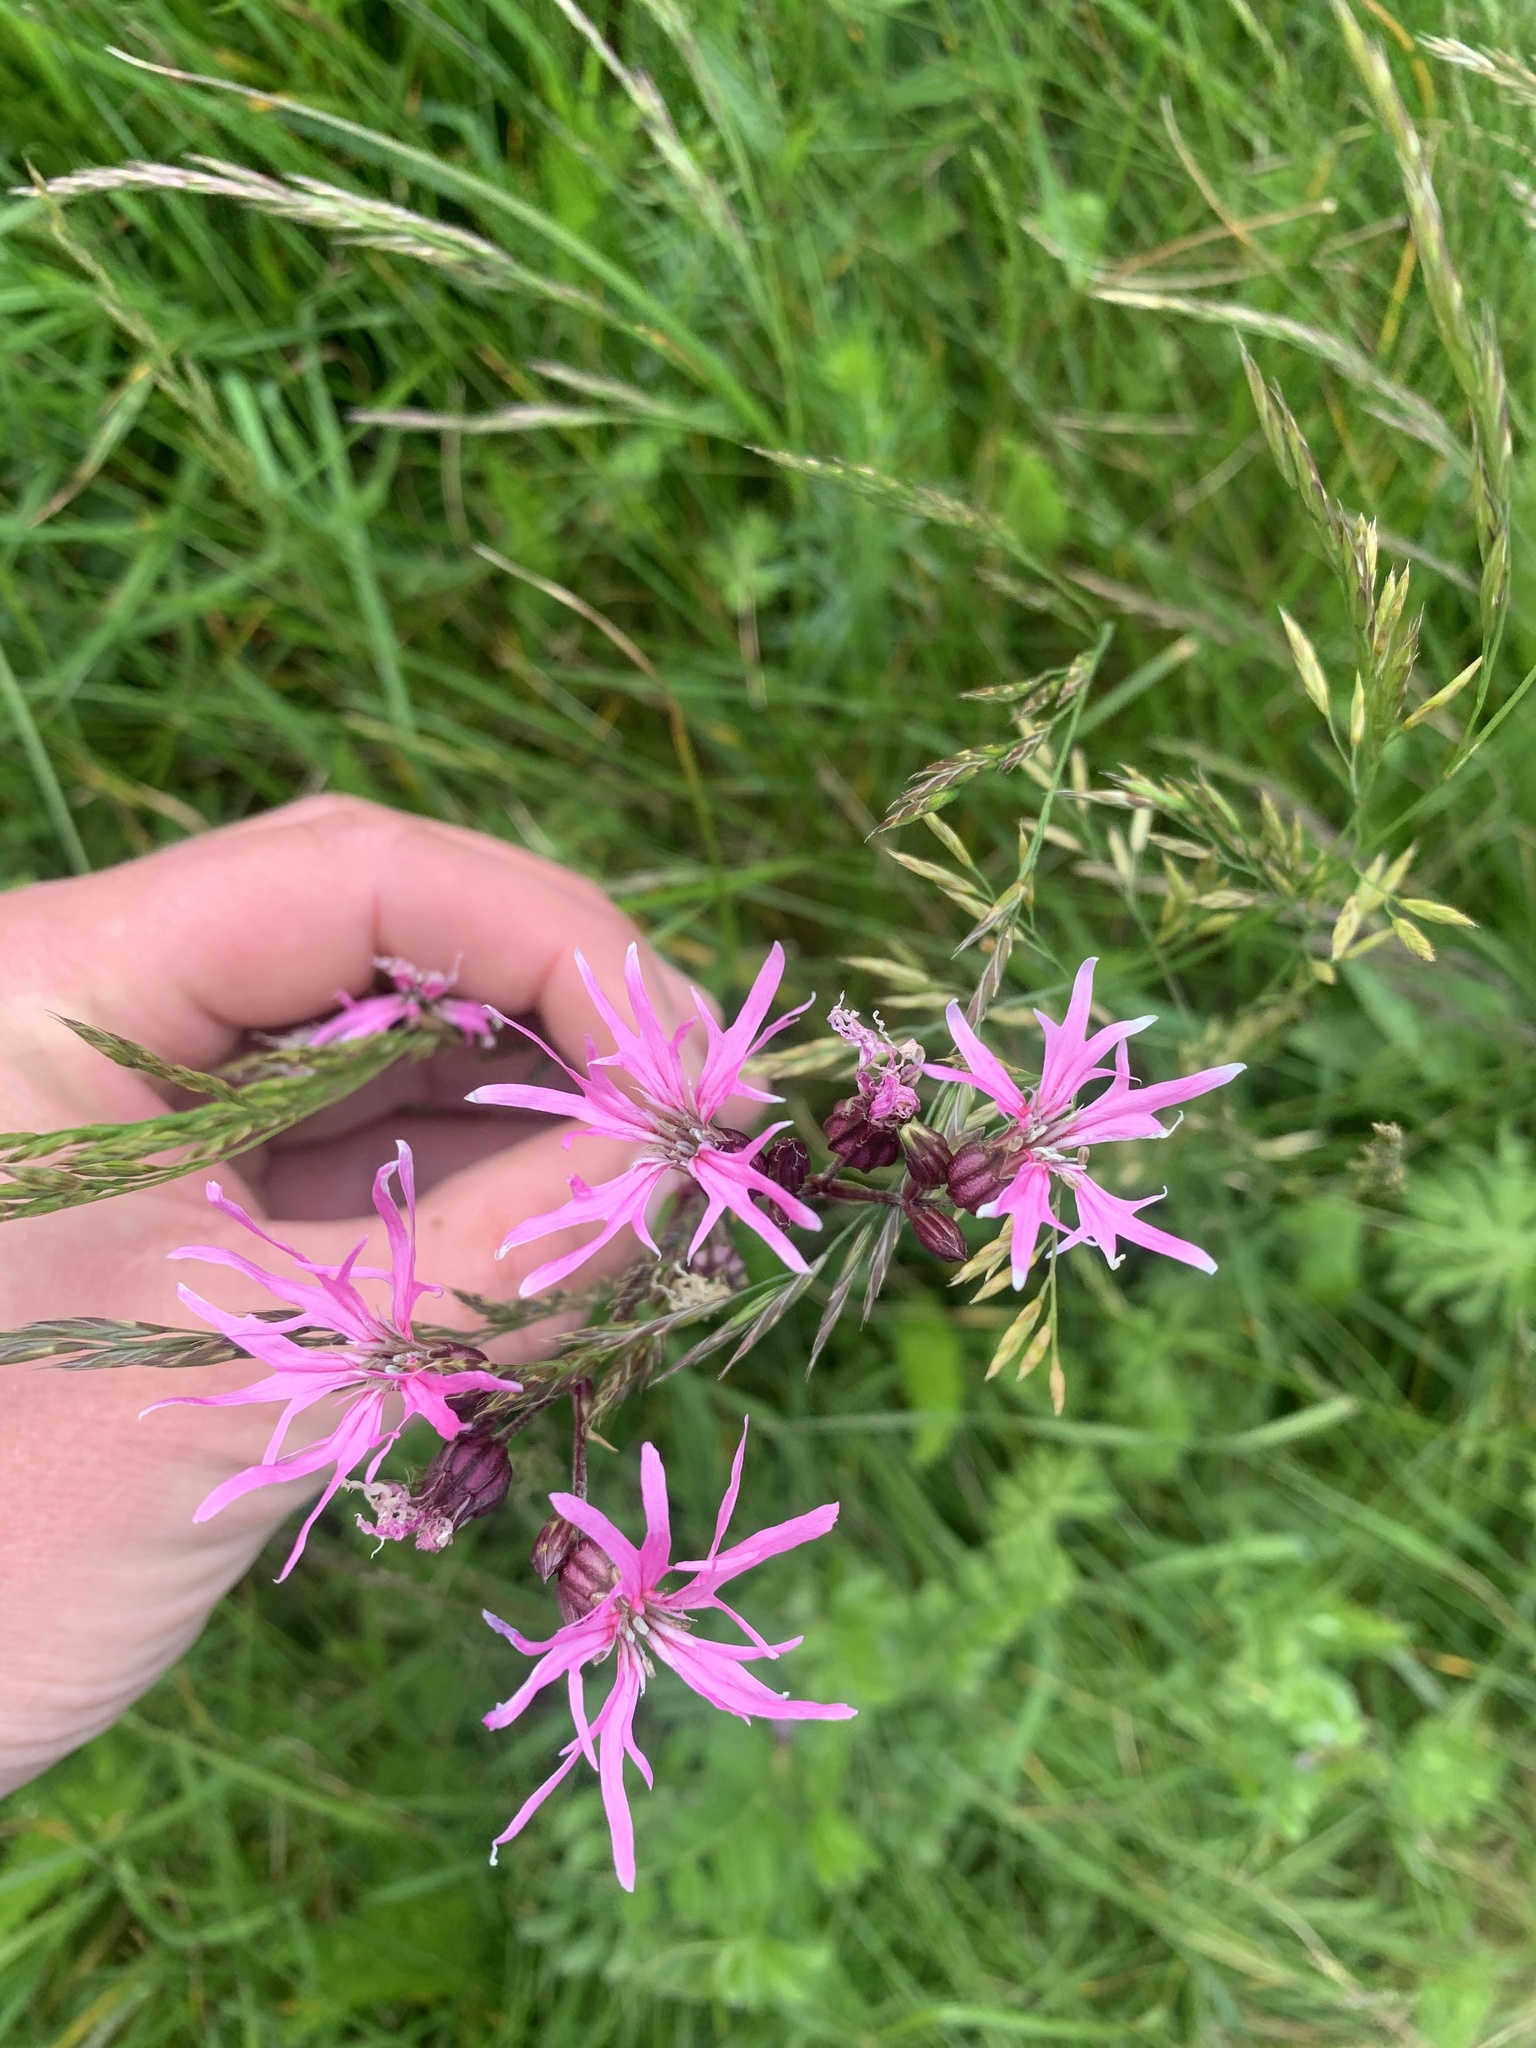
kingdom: Plantae
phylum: Tracheophyta
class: Magnoliopsida
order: Caryophyllales
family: Caryophyllaceae
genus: Silene
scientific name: Silene flos-cuculi
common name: Ragged-robin
